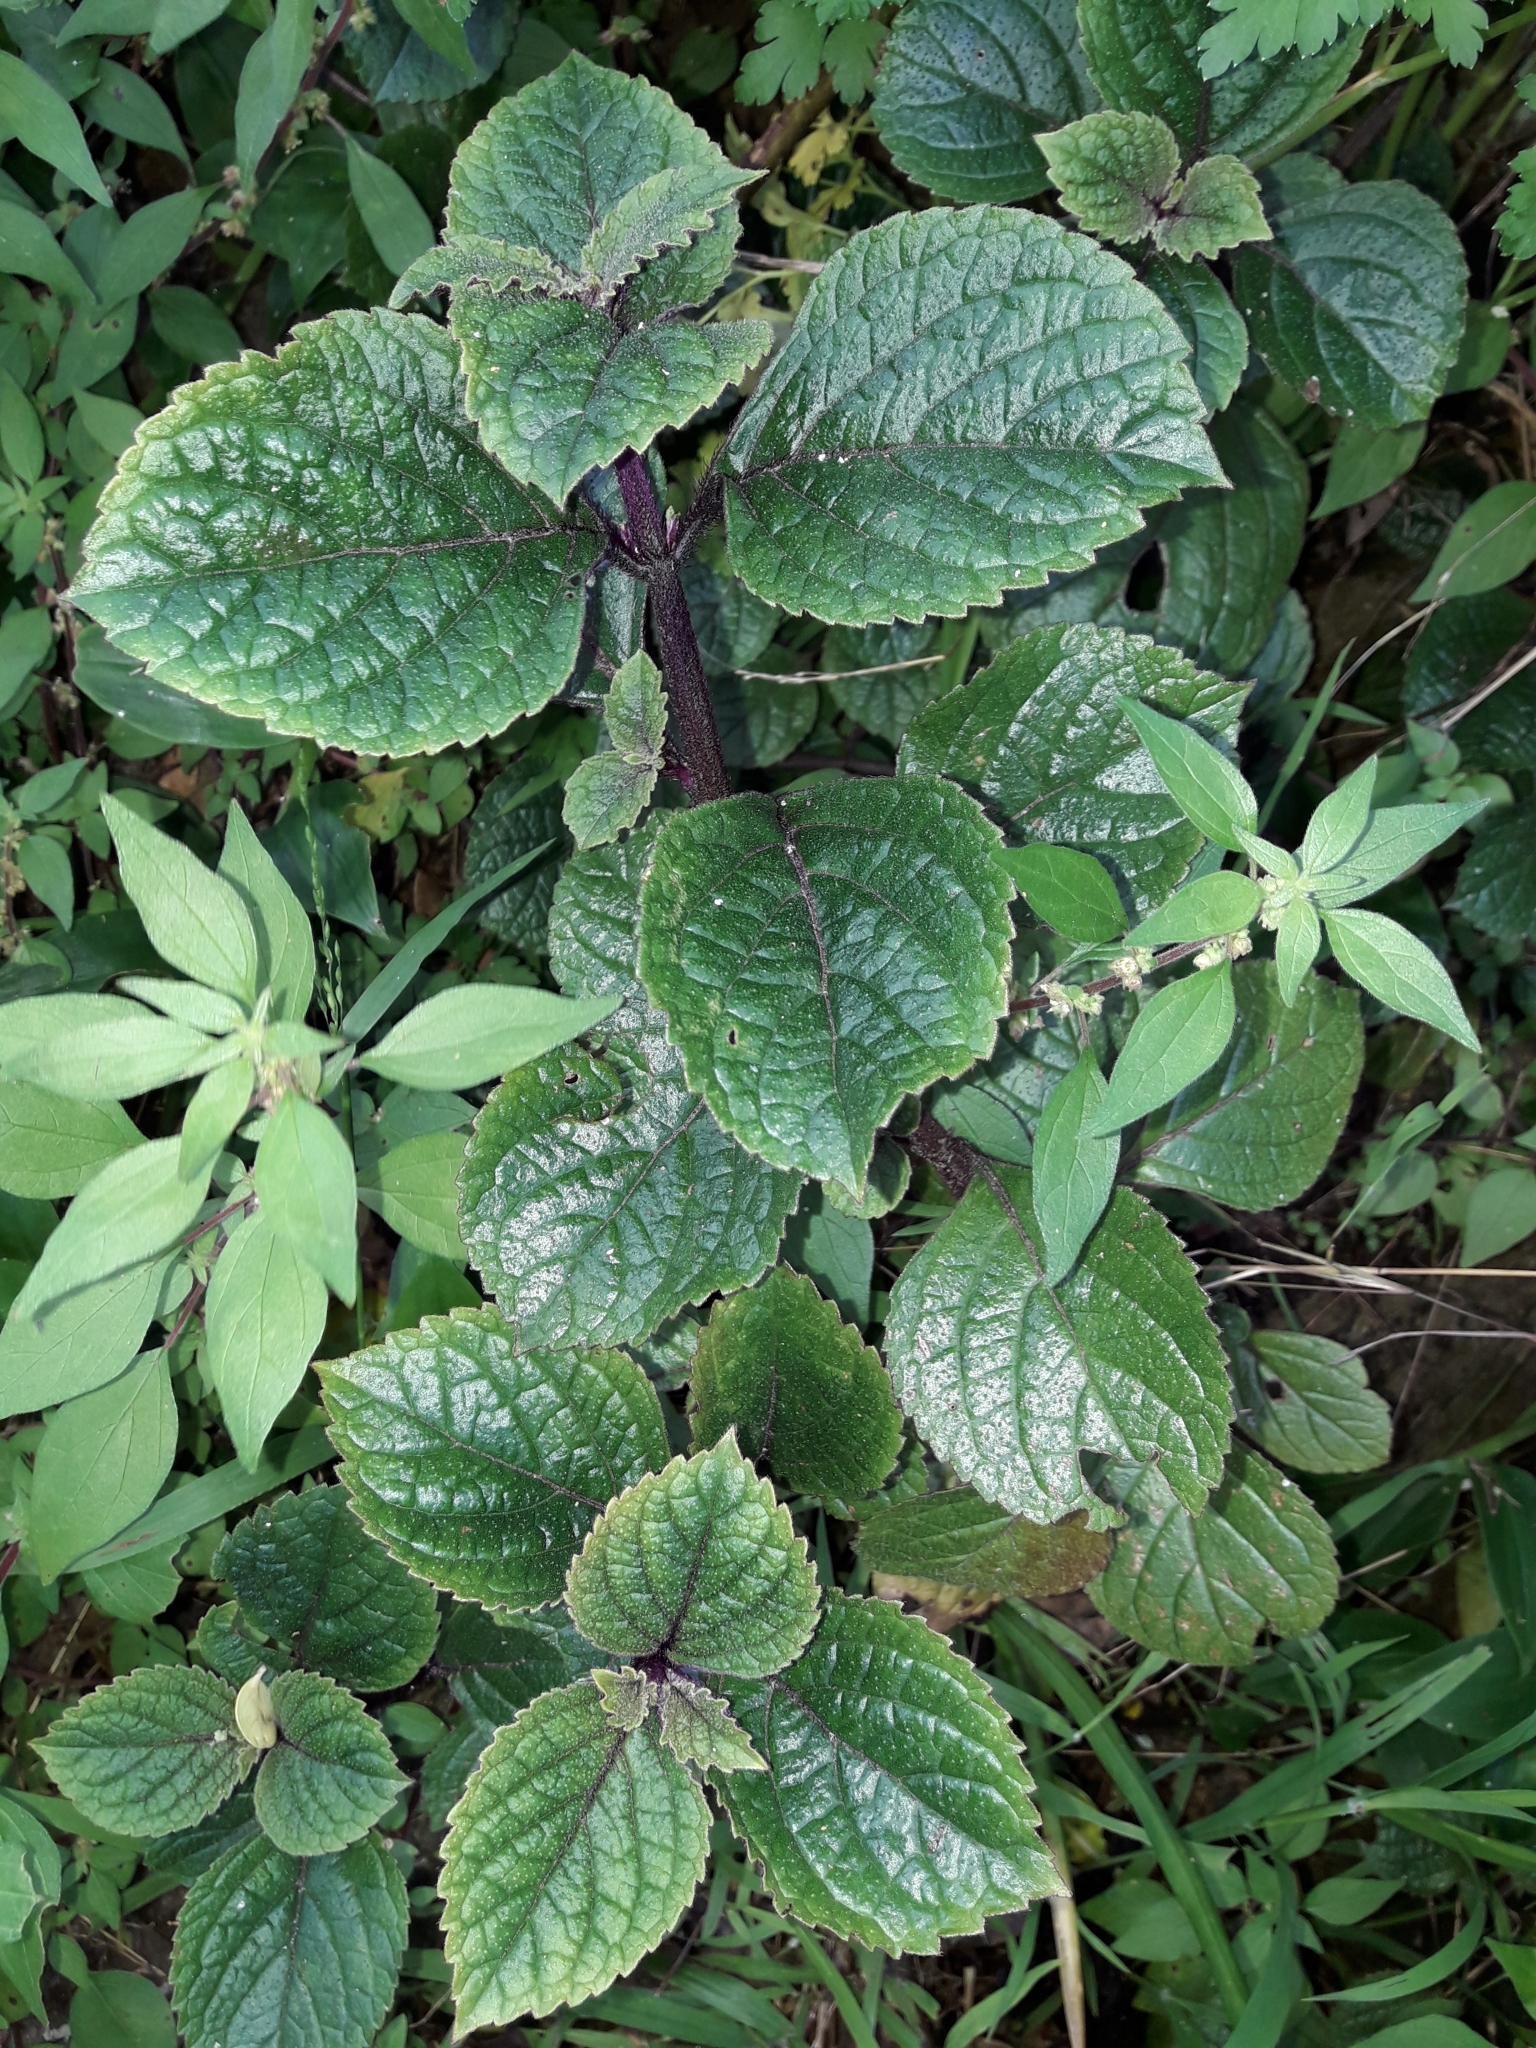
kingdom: Plantae
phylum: Tracheophyta
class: Magnoliopsida
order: Lamiales
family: Lamiaceae
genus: Plectranthus
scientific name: Plectranthus ciliatus
